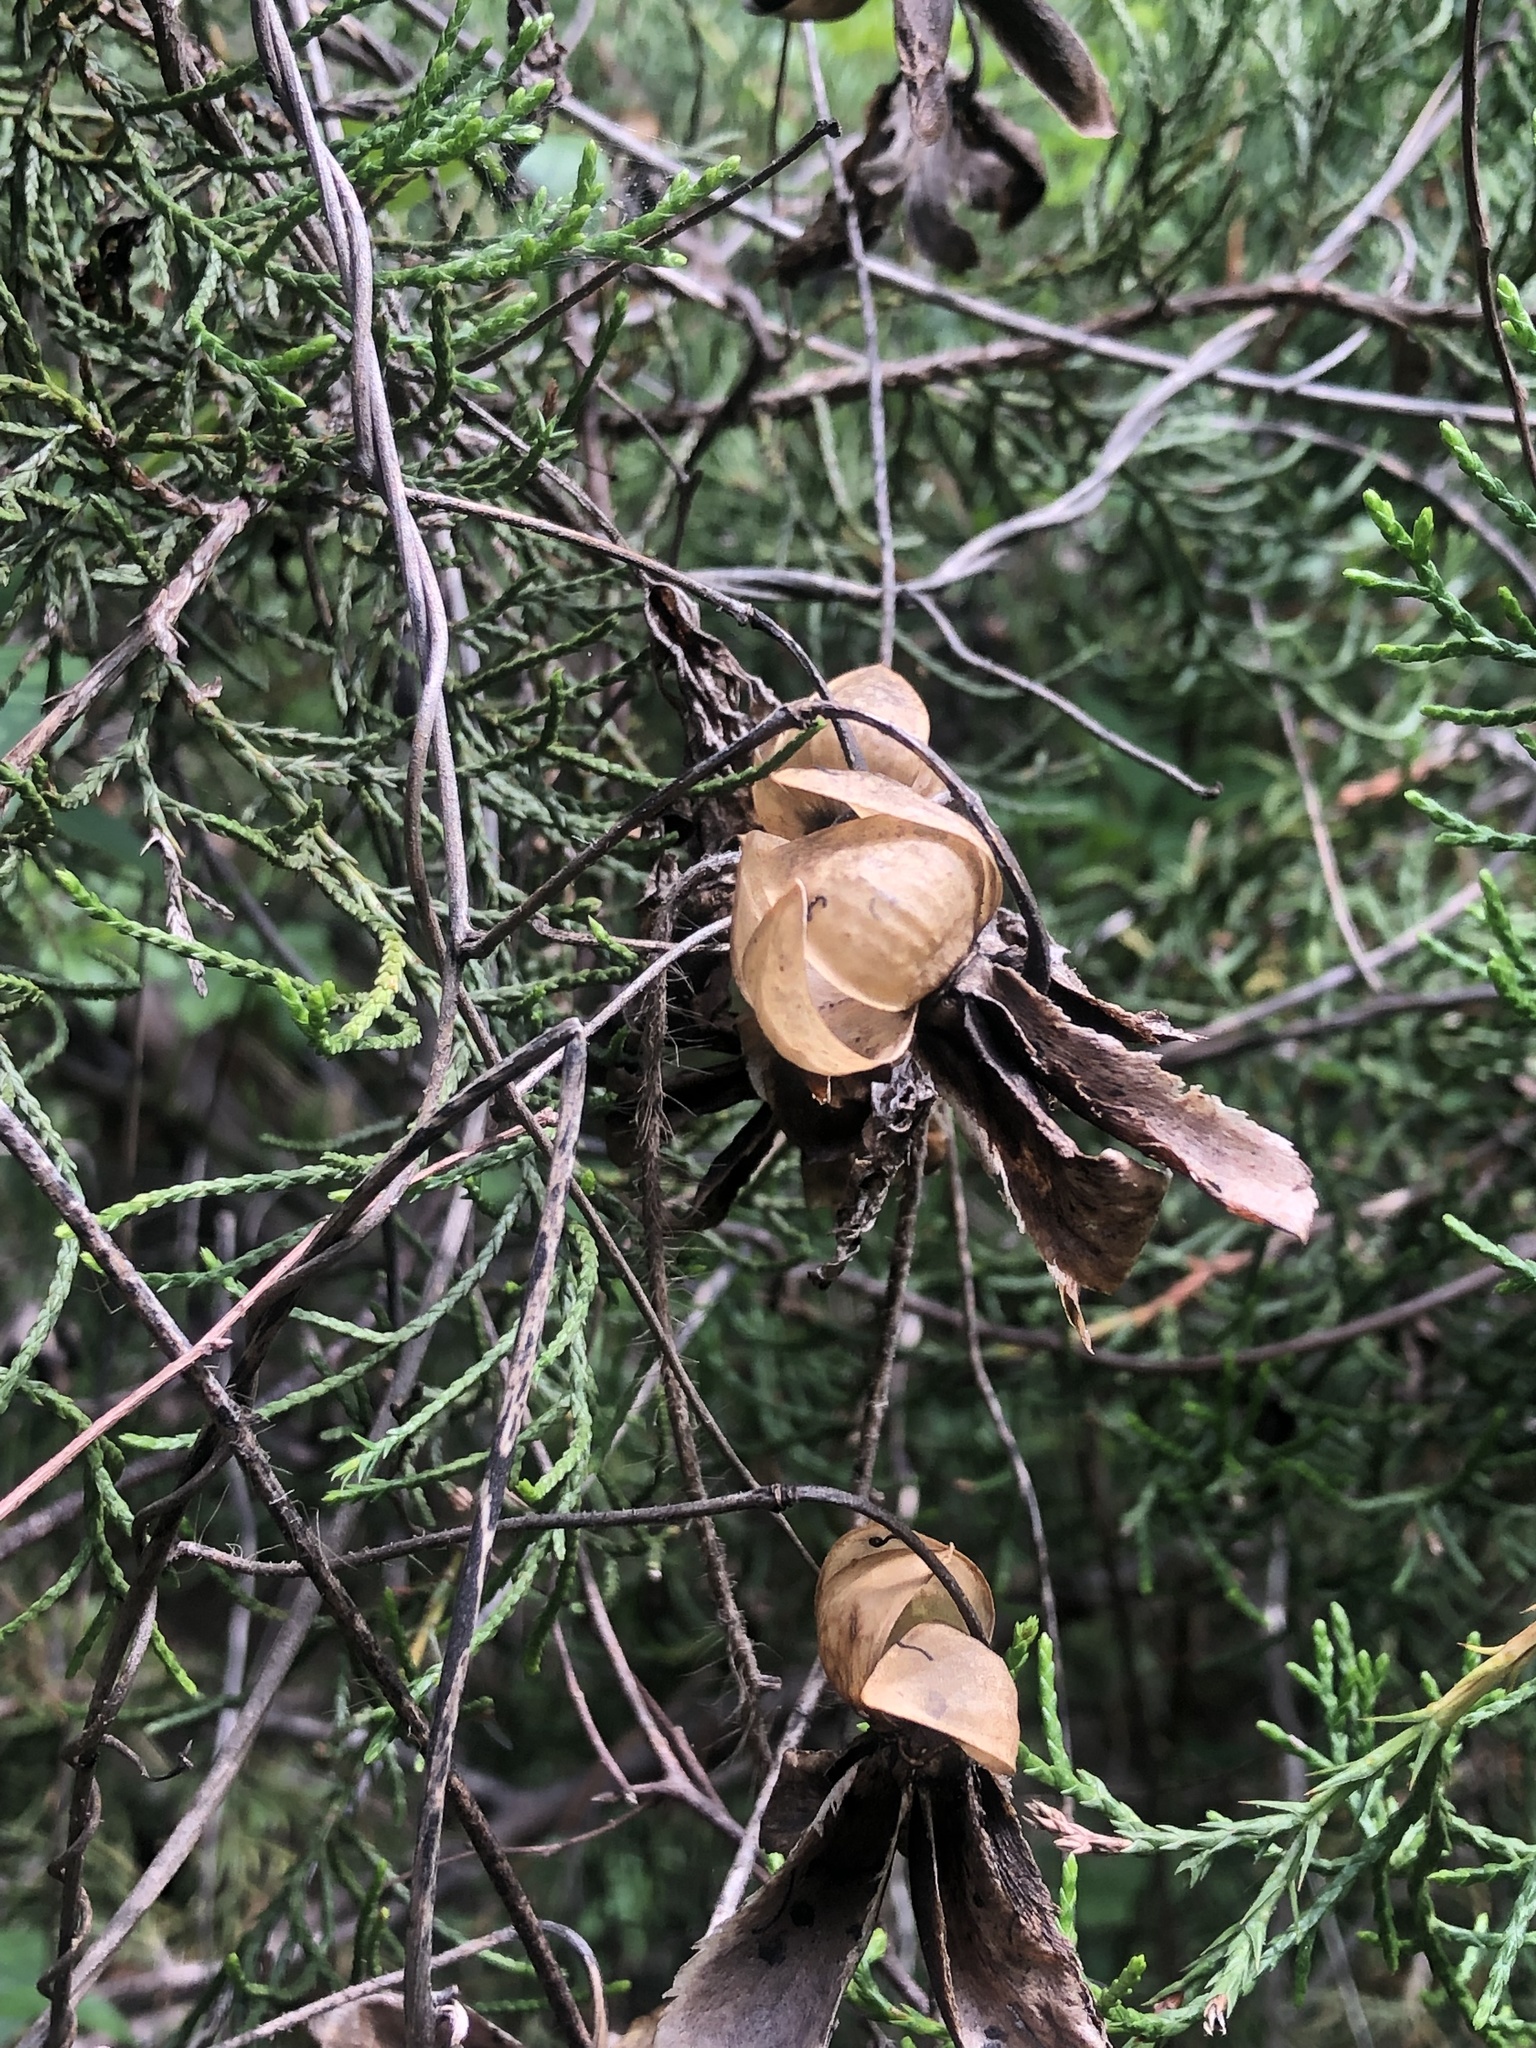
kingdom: Plantae
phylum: Tracheophyta
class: Magnoliopsida
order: Solanales
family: Convolvulaceae
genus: Distimake
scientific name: Distimake dissectus
